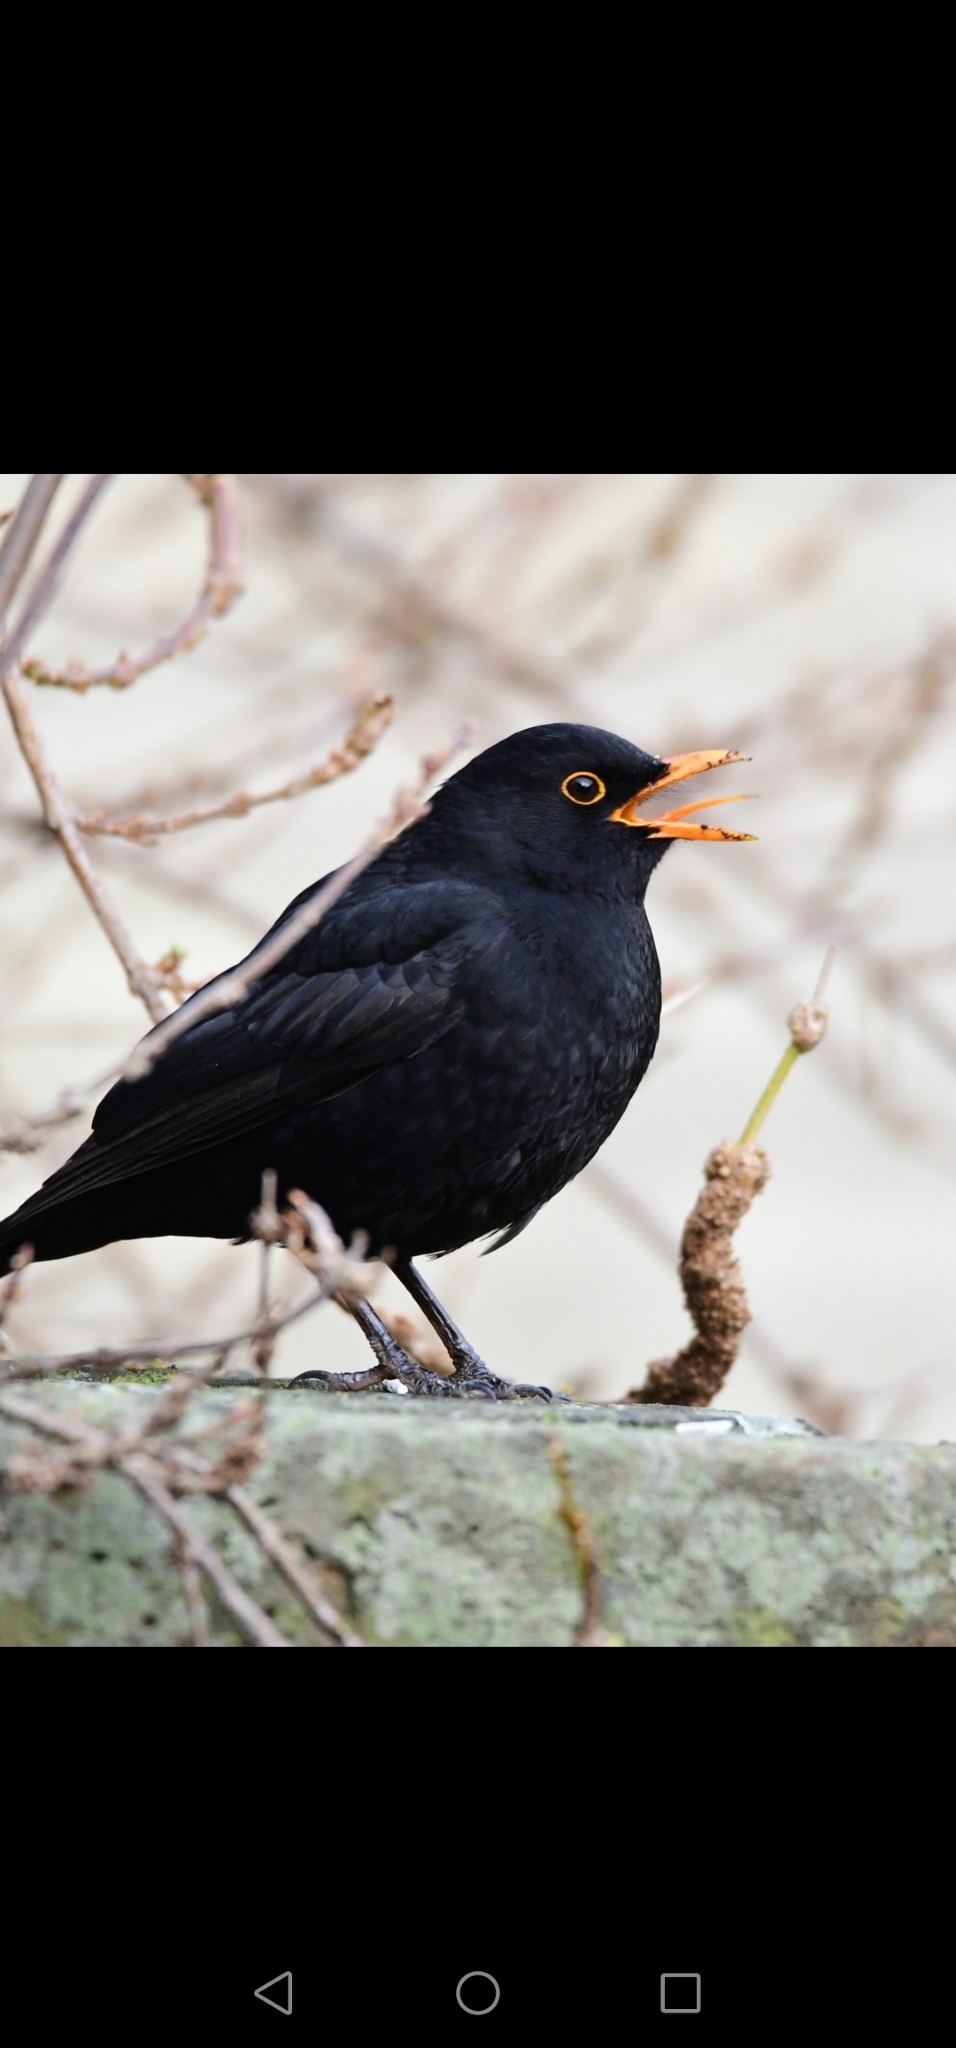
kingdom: Animalia
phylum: Chordata
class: Aves
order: Passeriformes
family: Turdidae
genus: Turdus
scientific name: Turdus merula
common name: Common blackbird
